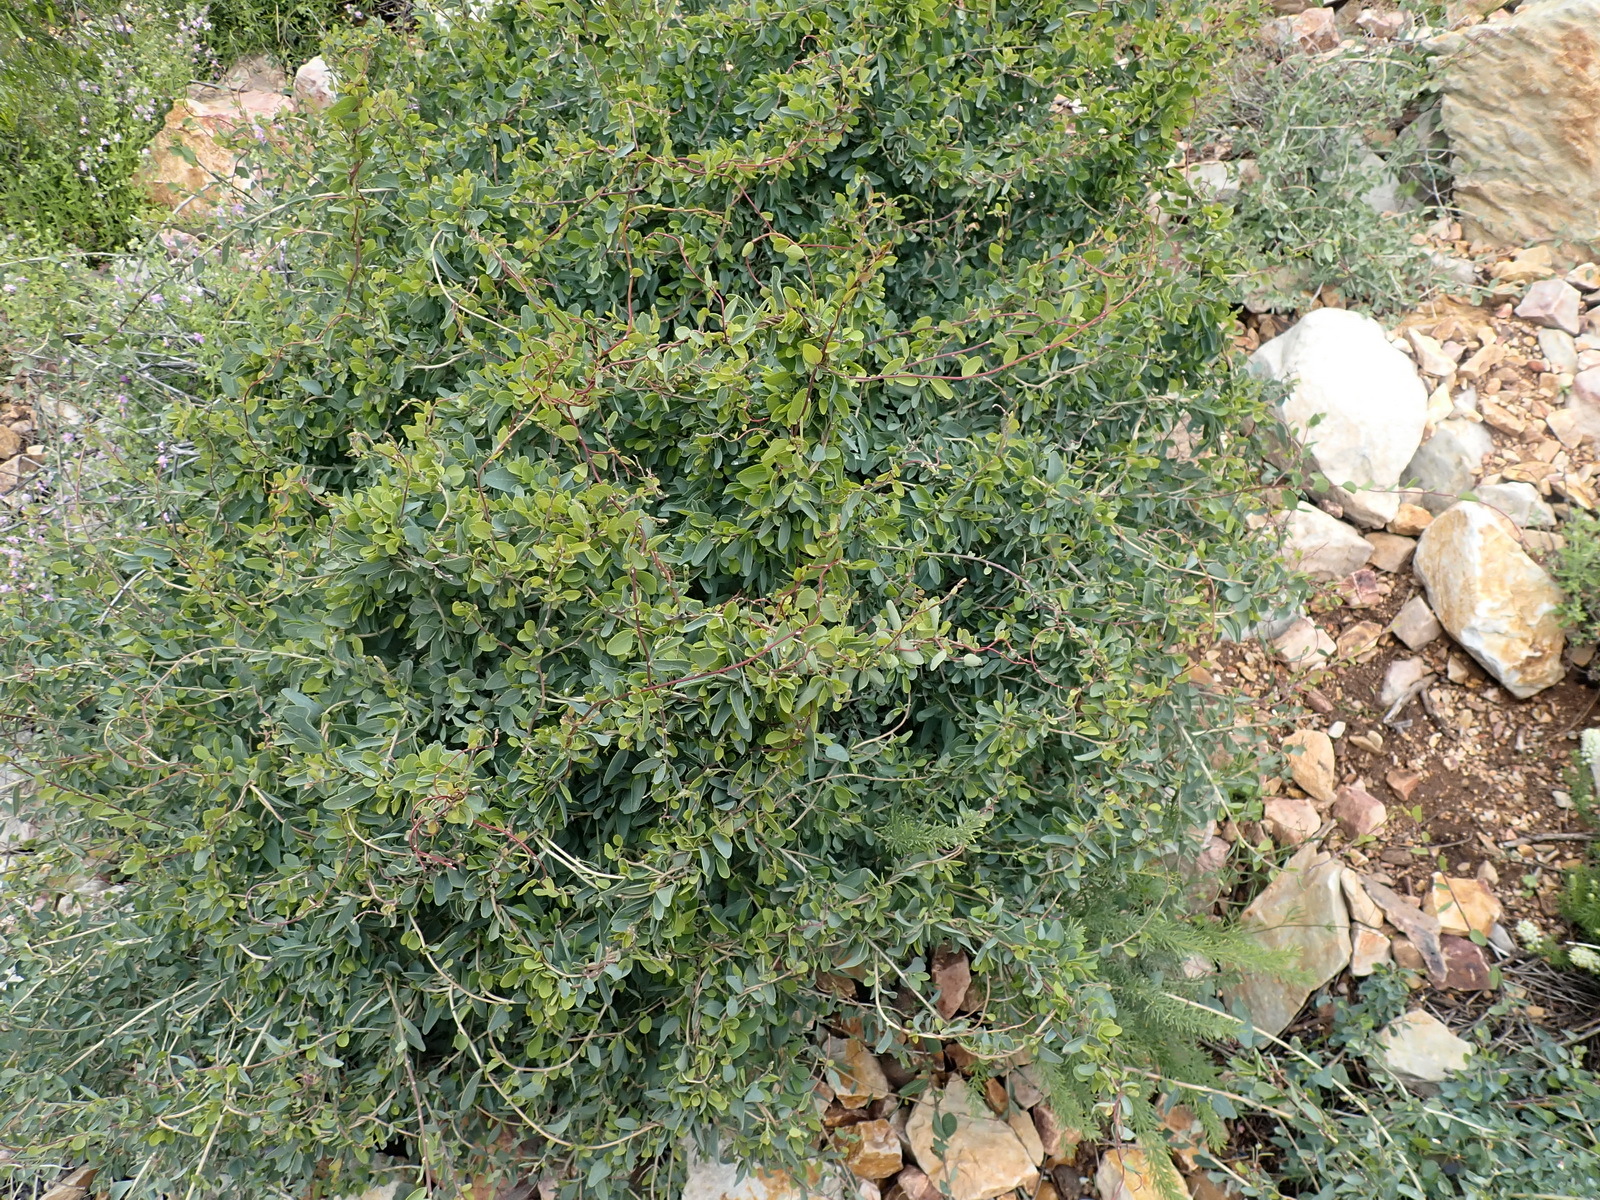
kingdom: Plantae
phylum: Tracheophyta
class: Magnoliopsida
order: Ranunculales
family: Menispermaceae
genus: Cissampelos
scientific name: Cissampelos capensis
